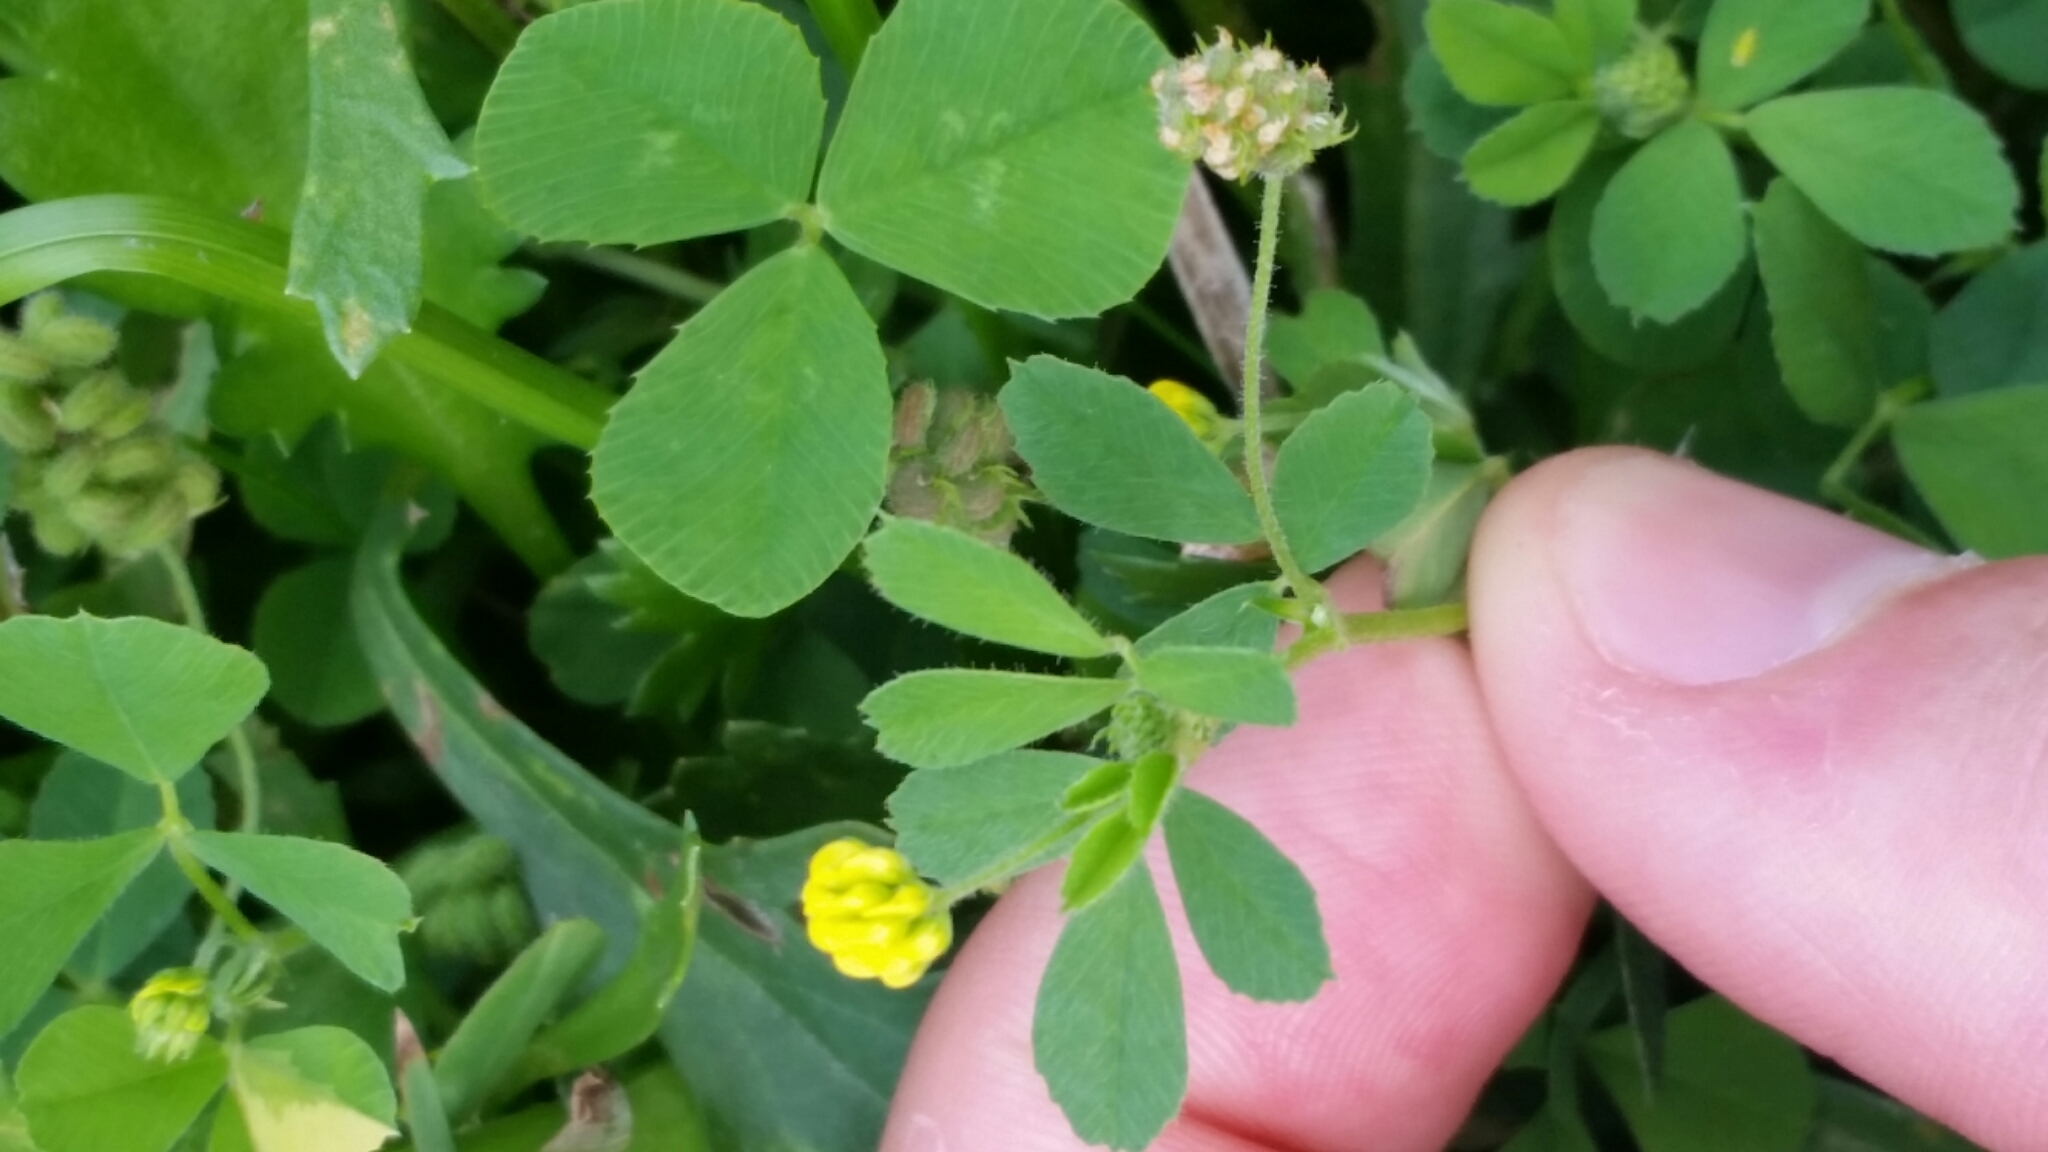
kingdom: Plantae
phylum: Tracheophyta
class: Magnoliopsida
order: Fabales
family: Fabaceae
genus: Medicago
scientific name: Medicago lupulina
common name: Black medick
